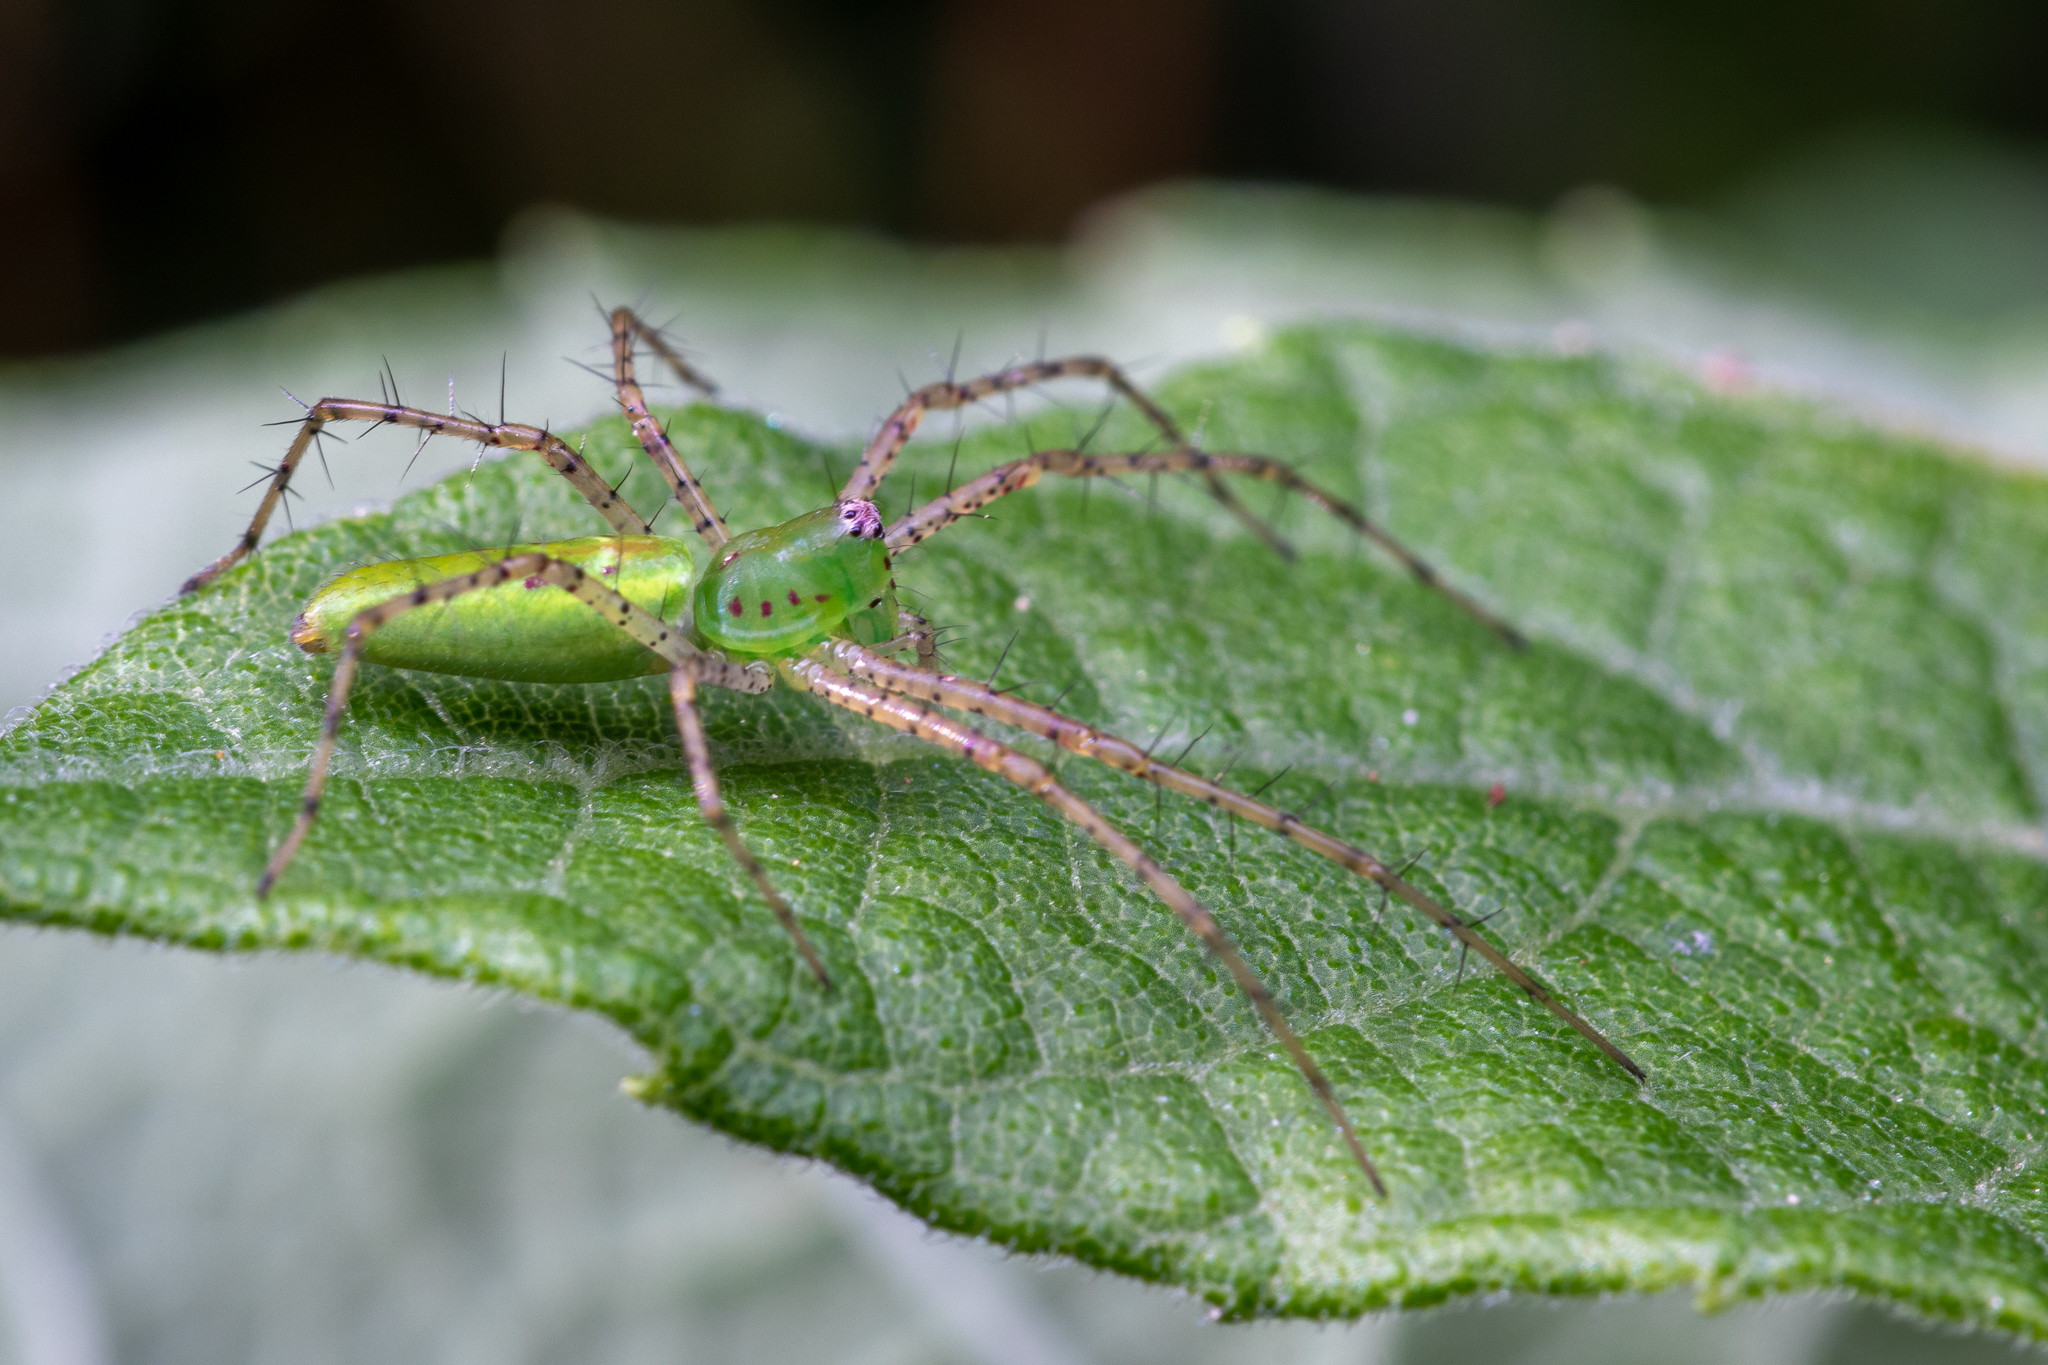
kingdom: Animalia
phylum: Arthropoda
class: Arachnida
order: Araneae
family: Oxyopidae
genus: Peucetia
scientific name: Peucetia viridans
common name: Lynx spiders
